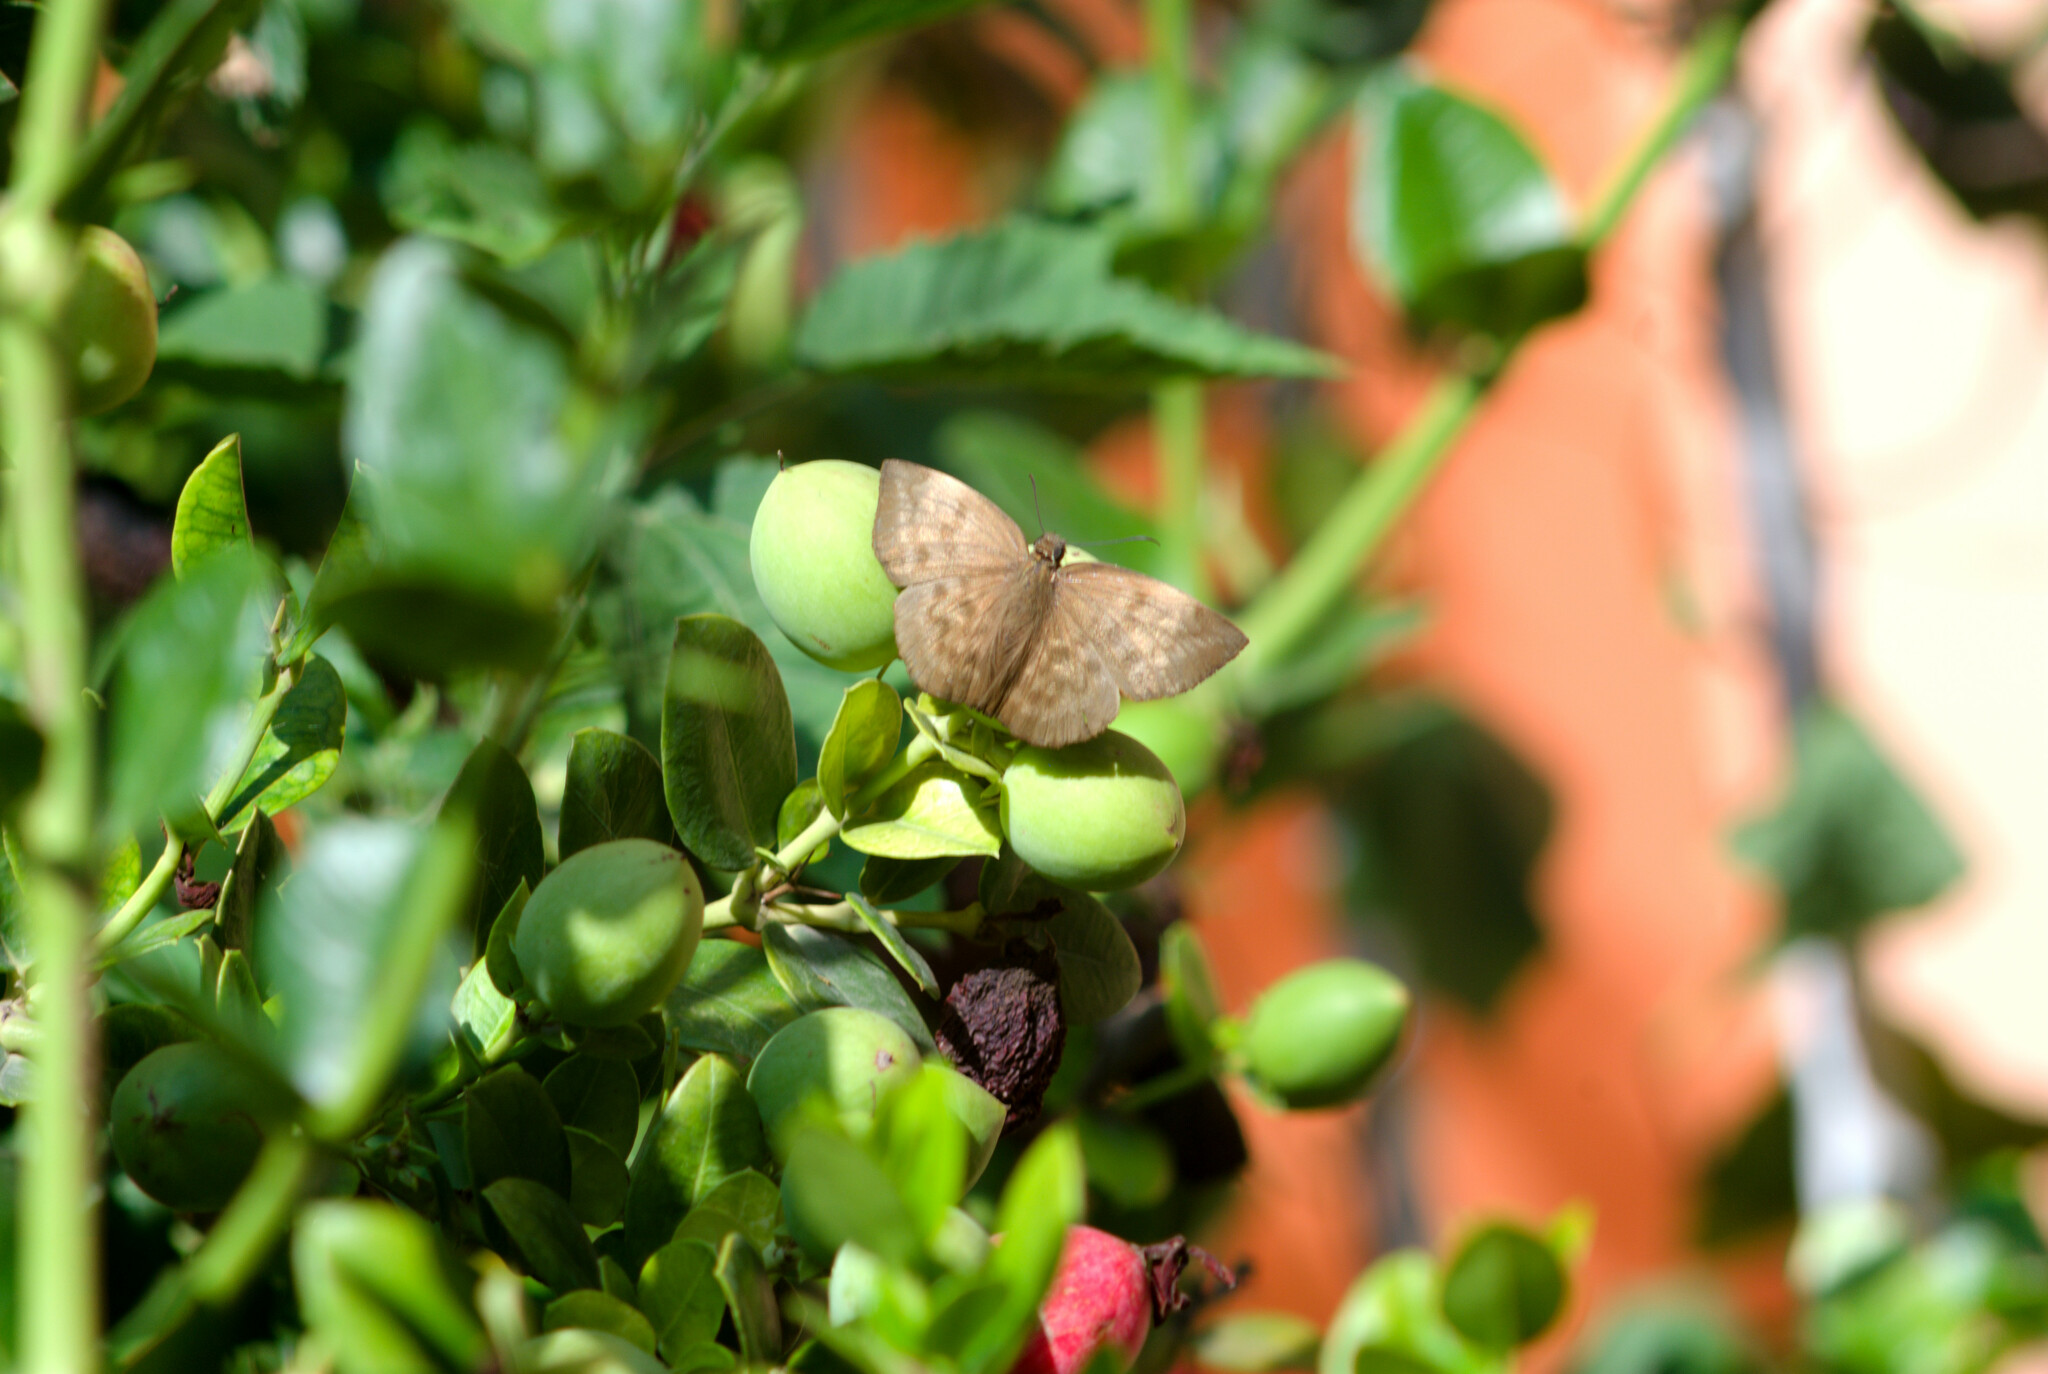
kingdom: Animalia
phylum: Arthropoda
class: Insecta
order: Lepidoptera
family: Hesperiidae
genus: Achlyodes
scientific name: Achlyodes pallida
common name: Pale sicklewing
